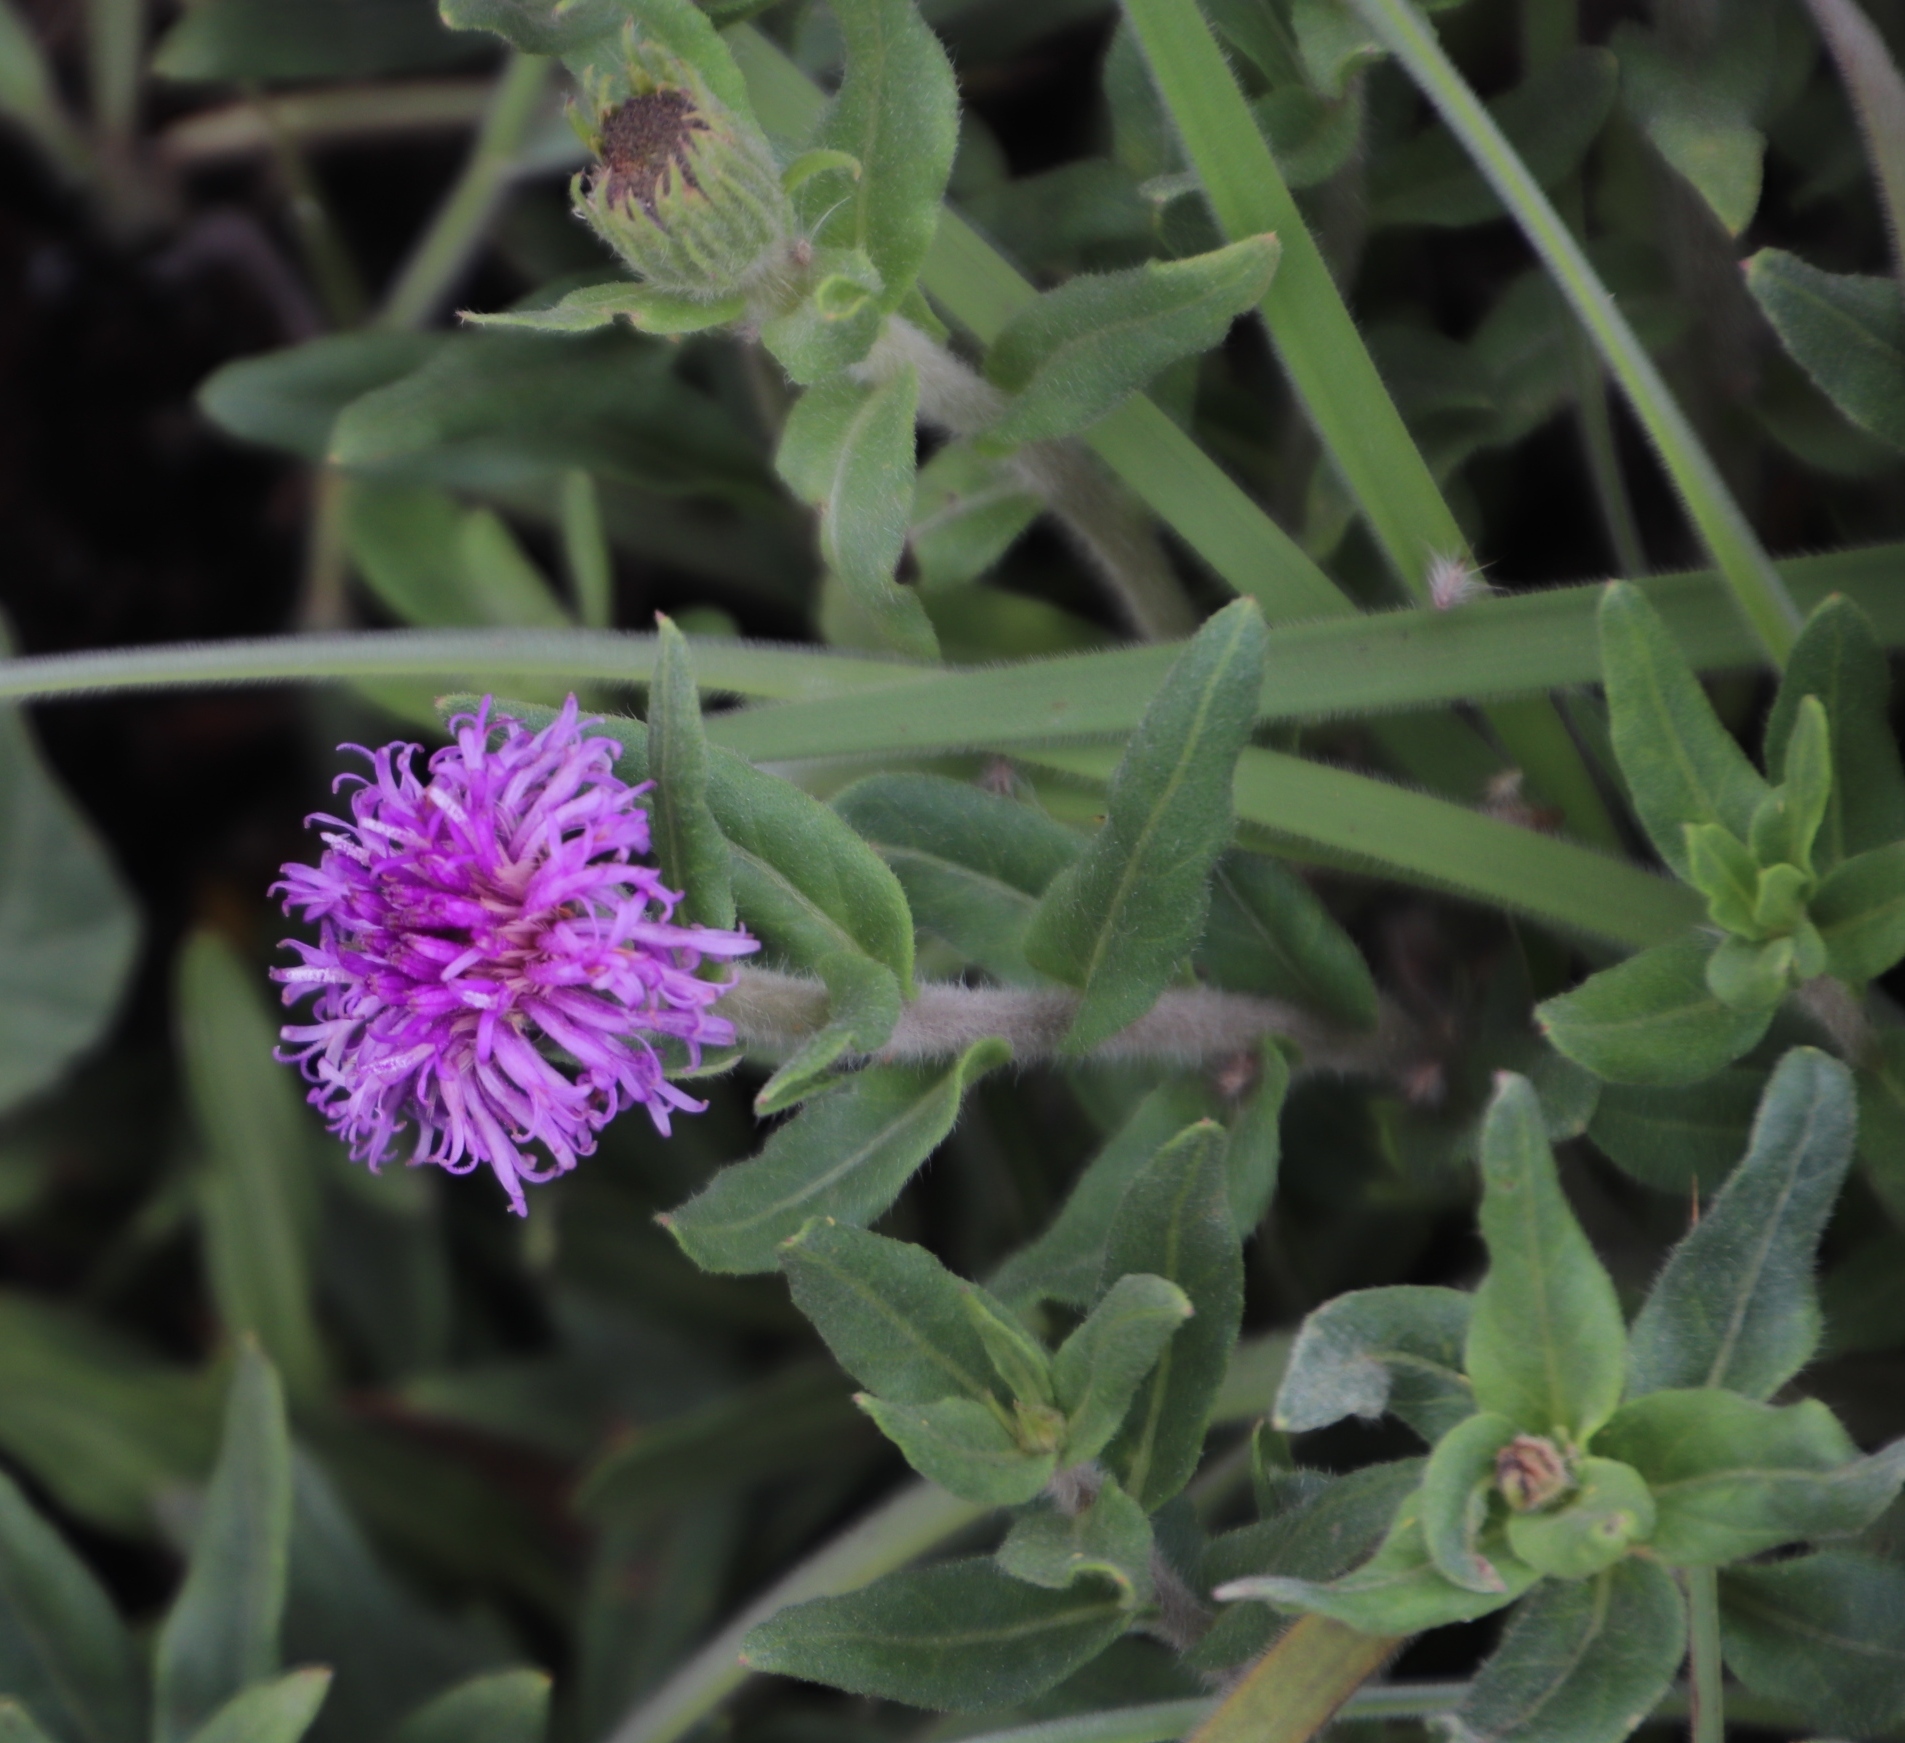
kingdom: Plantae
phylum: Tracheophyta
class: Magnoliopsida
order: Asterales
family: Asteraceae
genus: Pseudopegolettia
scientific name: Pseudopegolettia tenella
